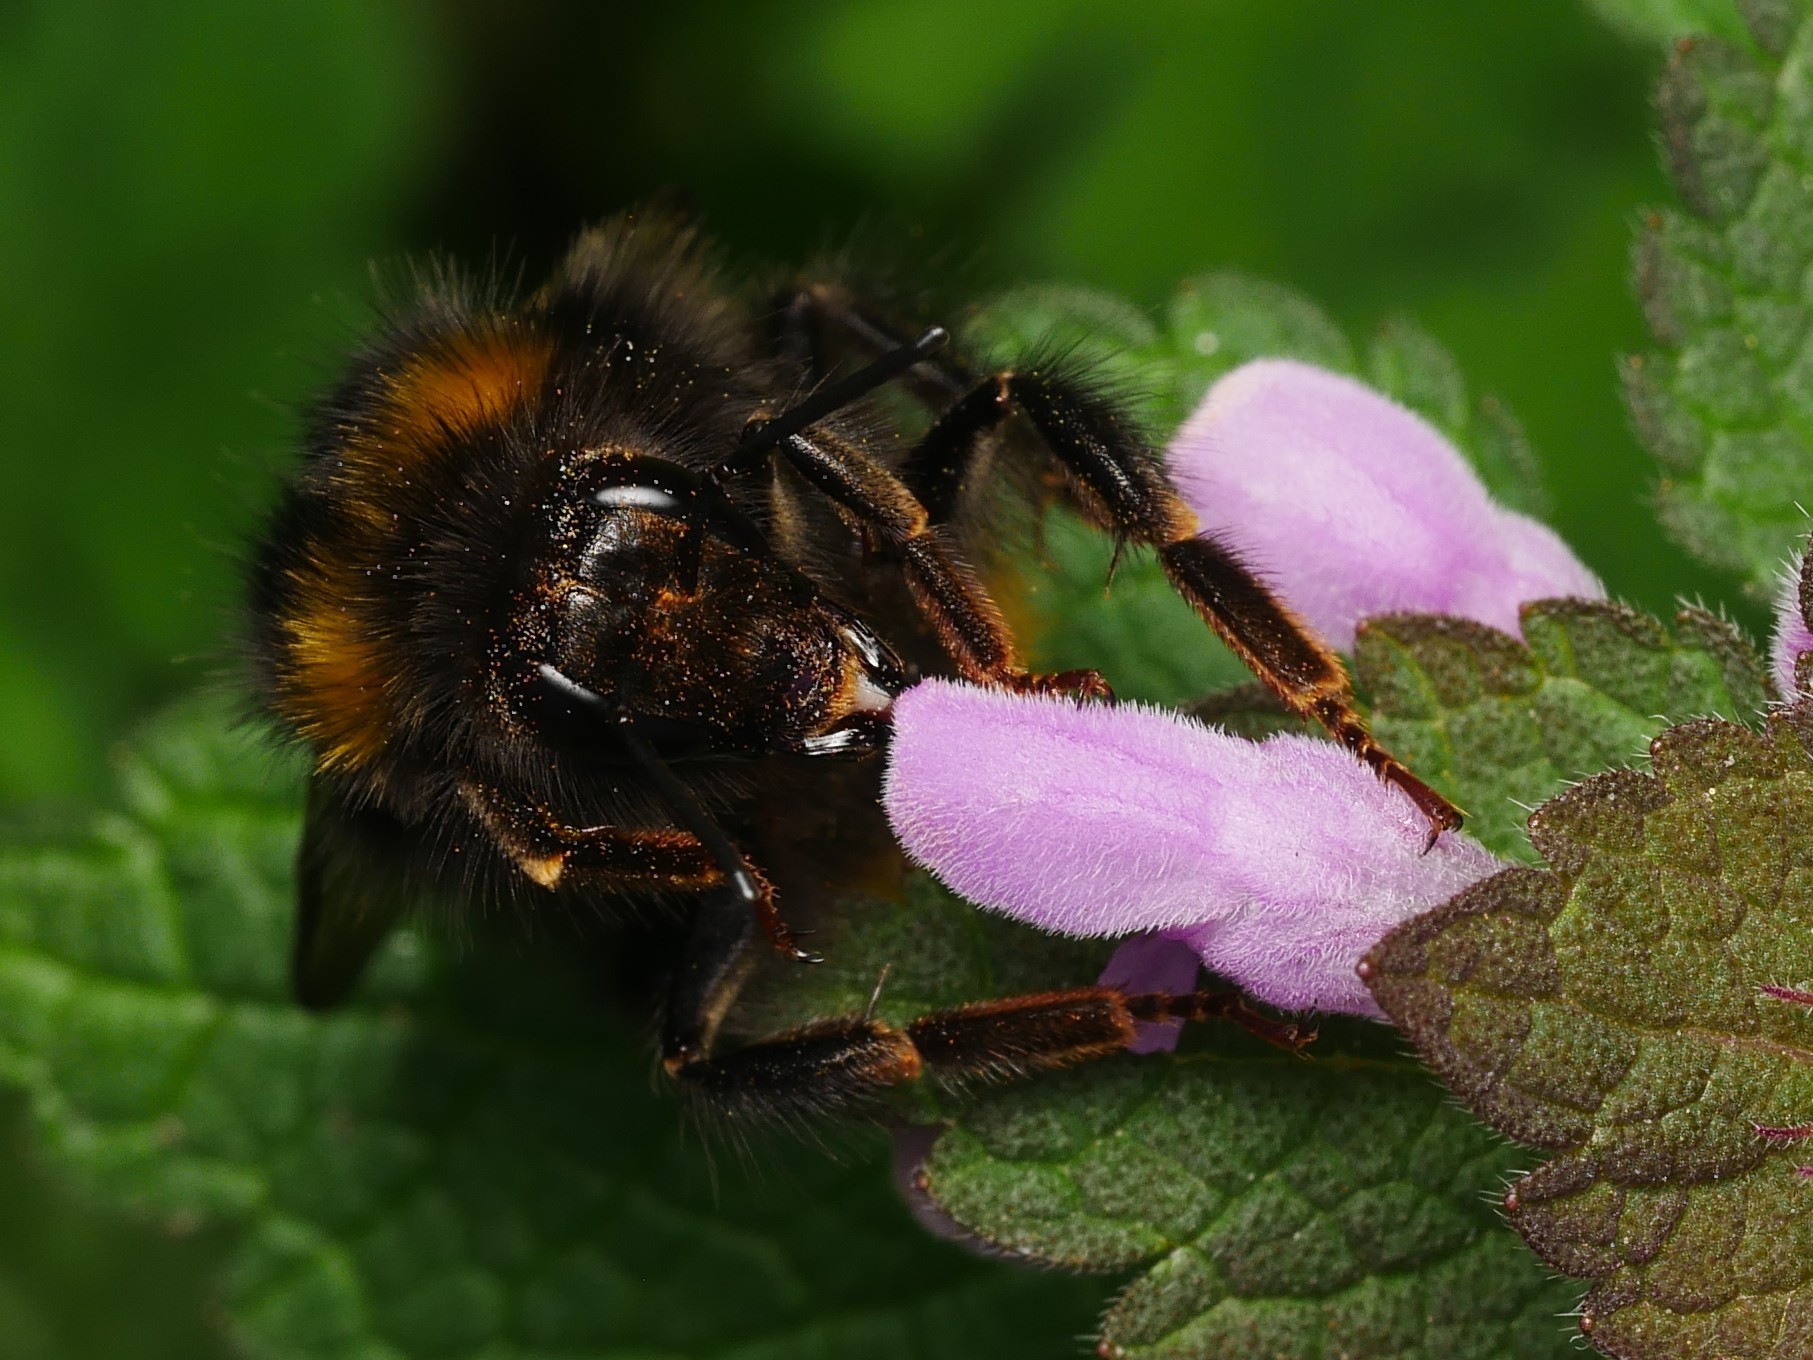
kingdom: Animalia
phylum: Arthropoda
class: Insecta
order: Hymenoptera
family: Apidae
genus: Bombus
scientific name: Bombus pratorum
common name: Early humble-bee
